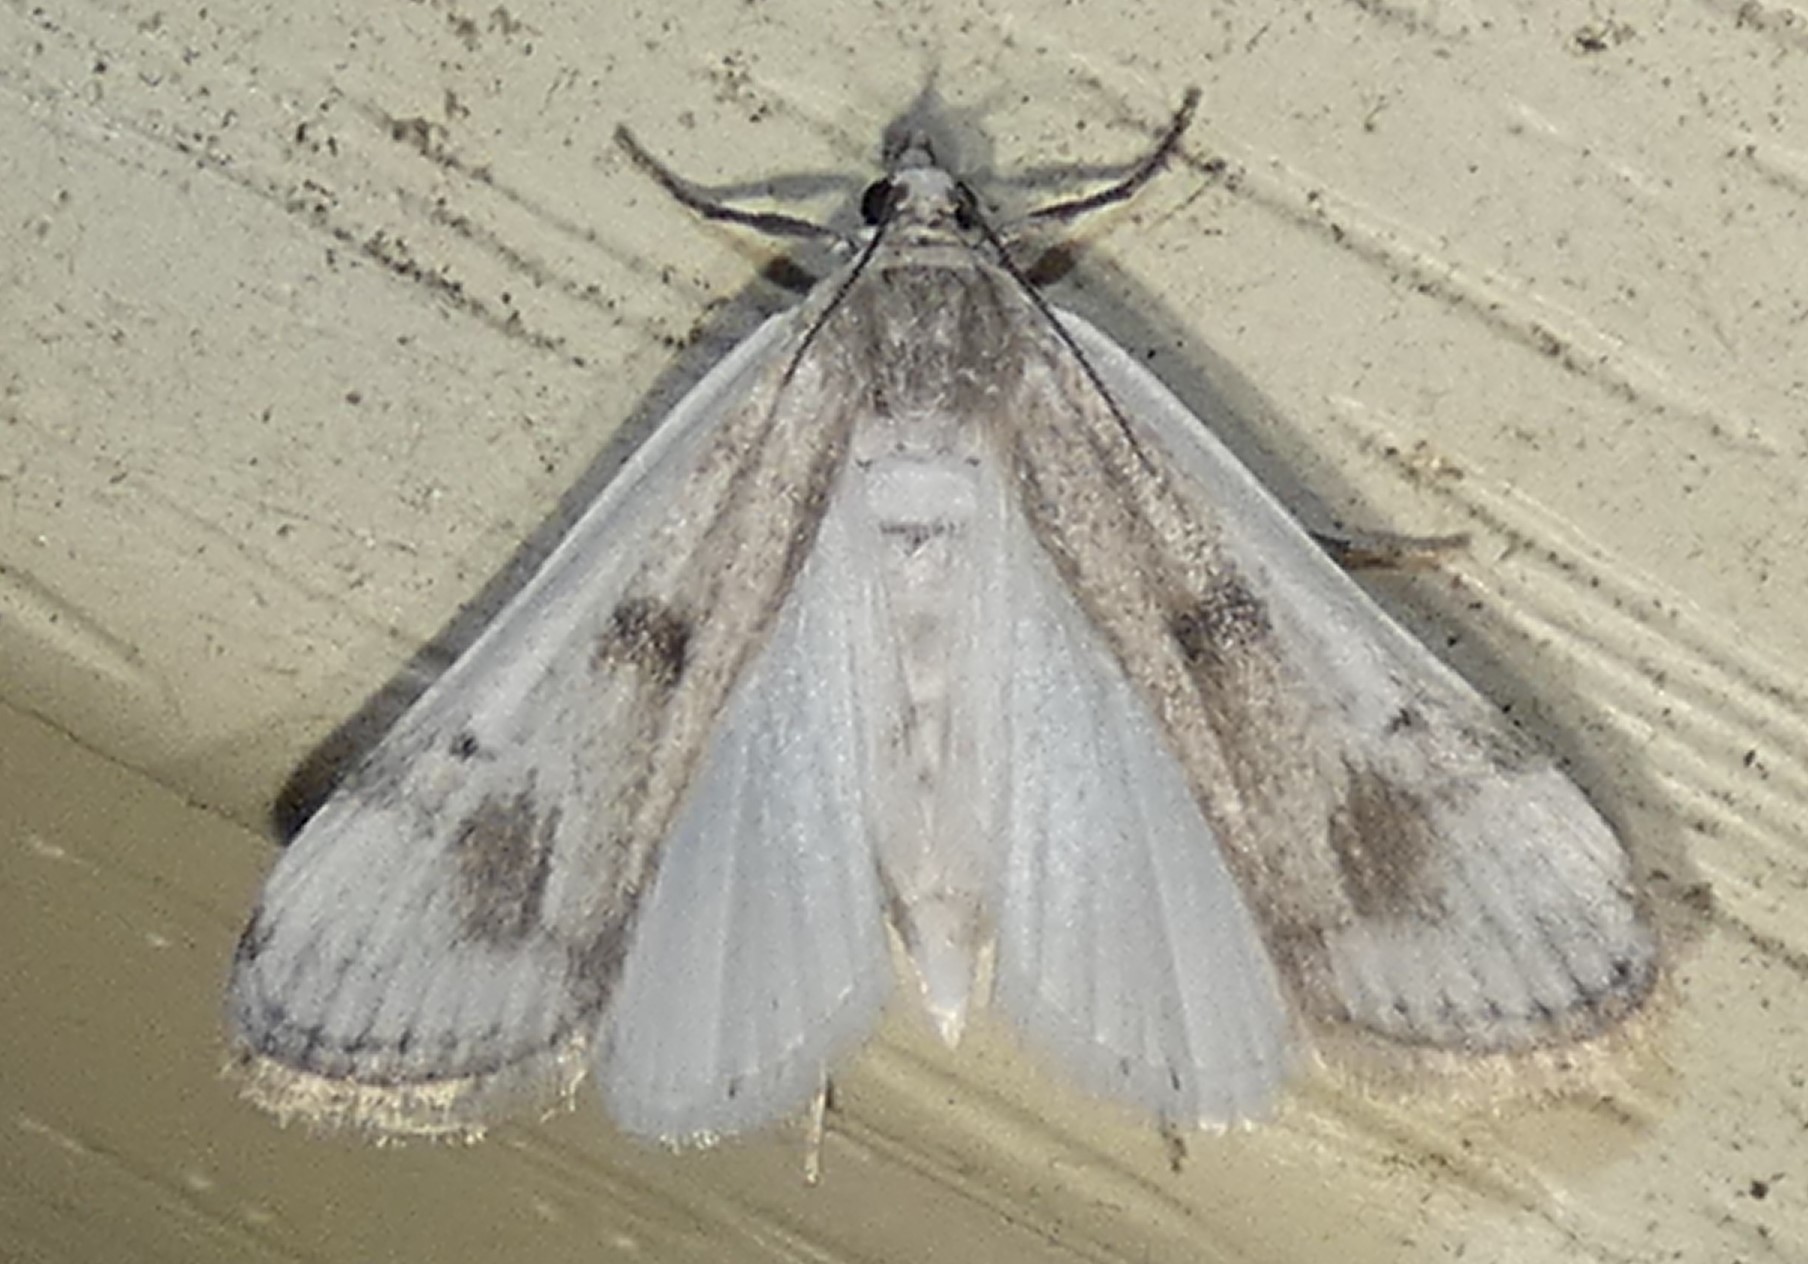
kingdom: Animalia
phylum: Arthropoda
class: Insecta
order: Lepidoptera
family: Crambidae
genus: Parapoynx
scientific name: Parapoynx maculalis
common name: Polymorphic pondweed moth
